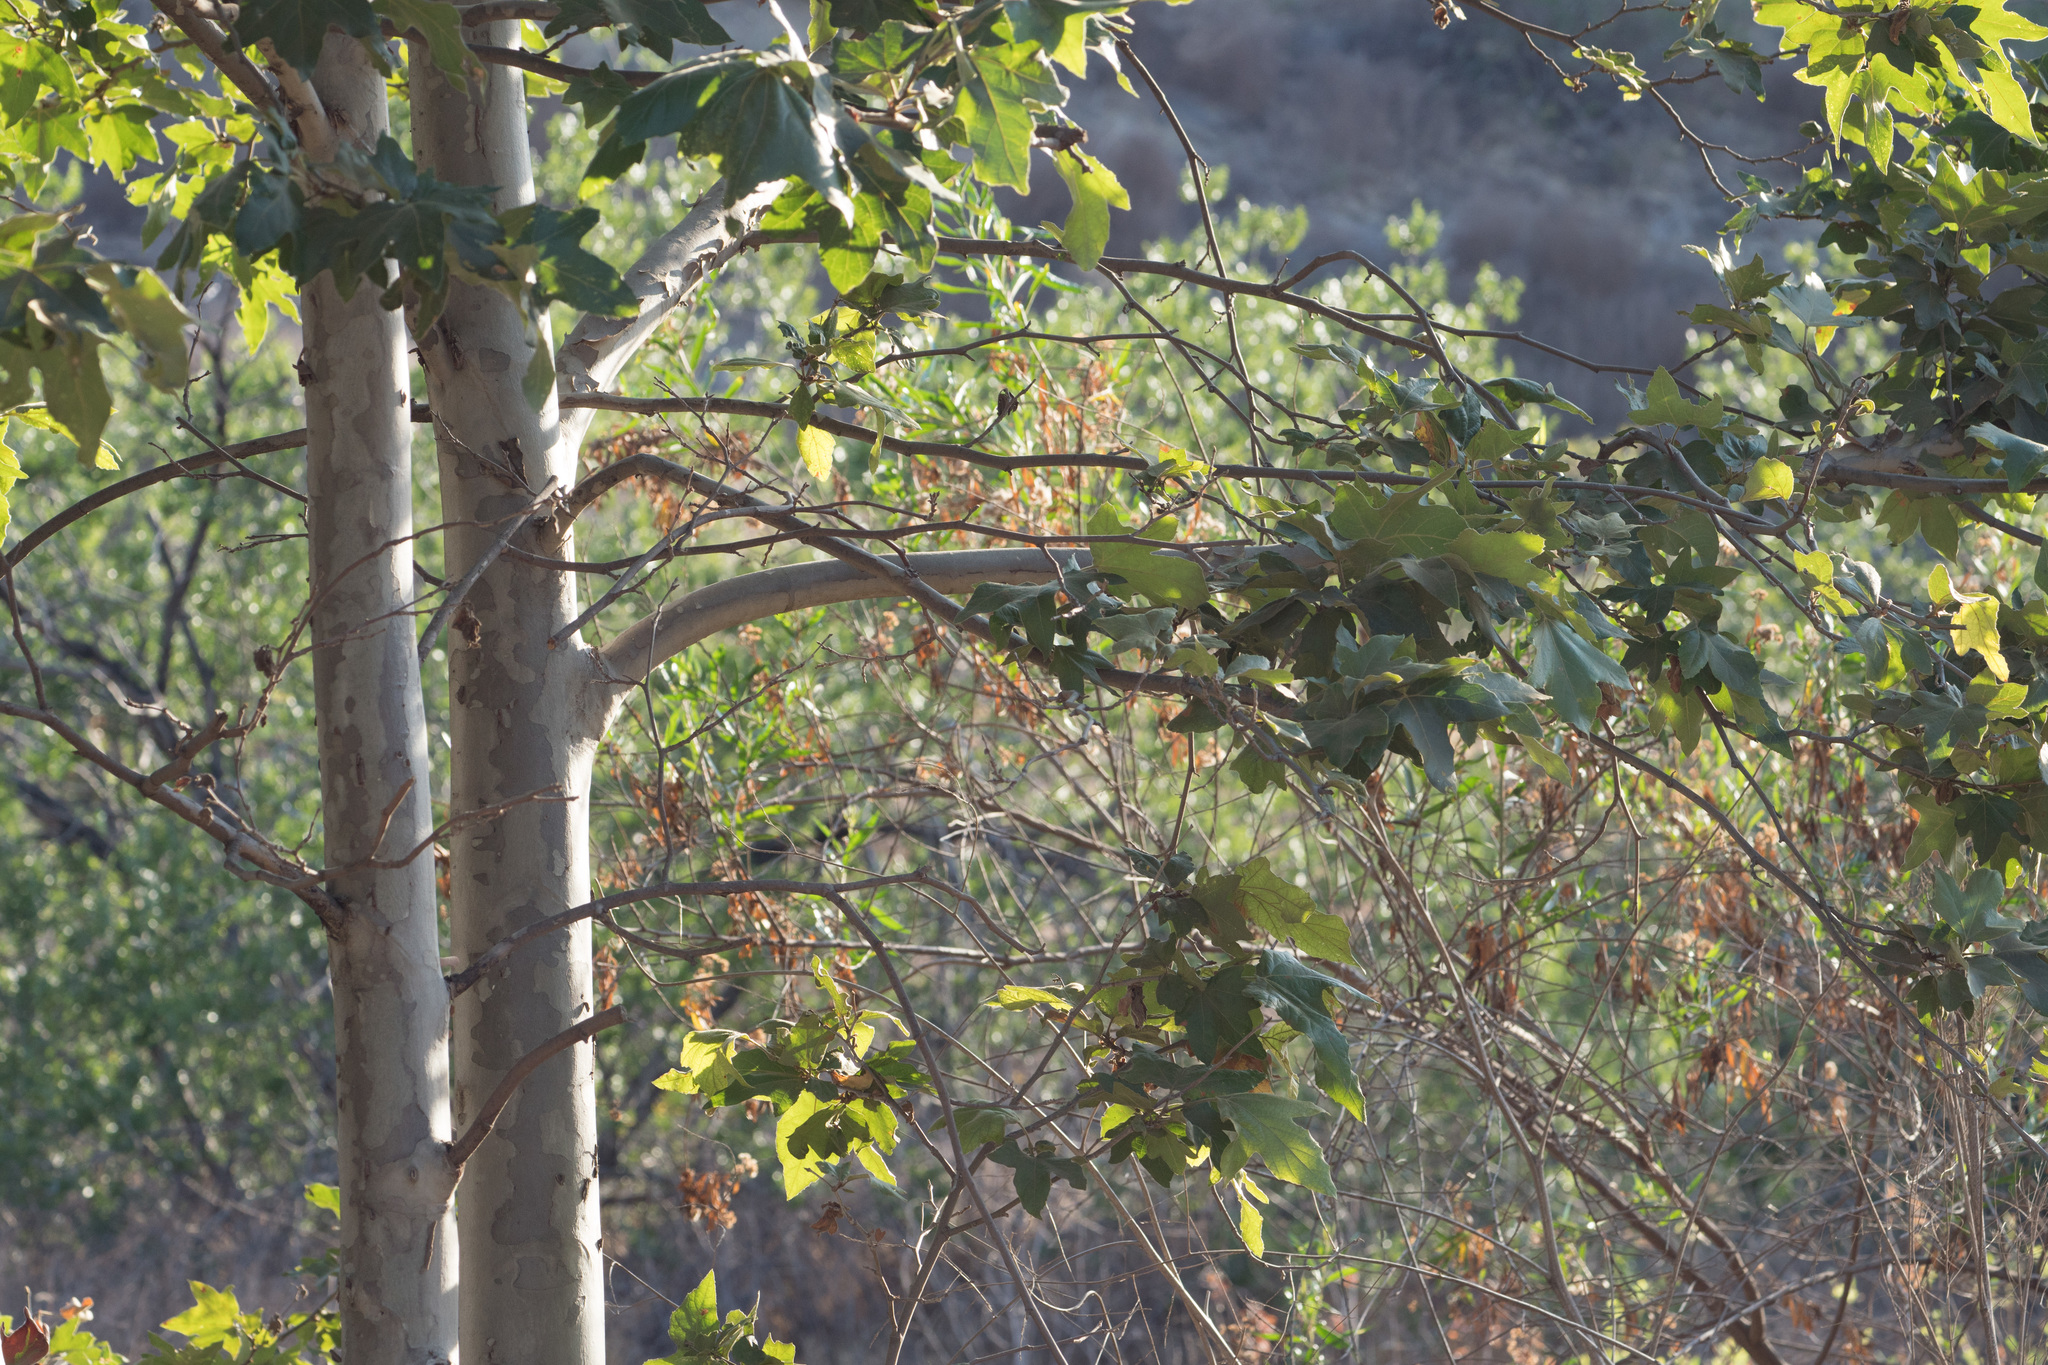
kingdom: Plantae
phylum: Tracheophyta
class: Magnoliopsida
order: Proteales
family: Platanaceae
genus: Platanus
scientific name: Platanus racemosa
